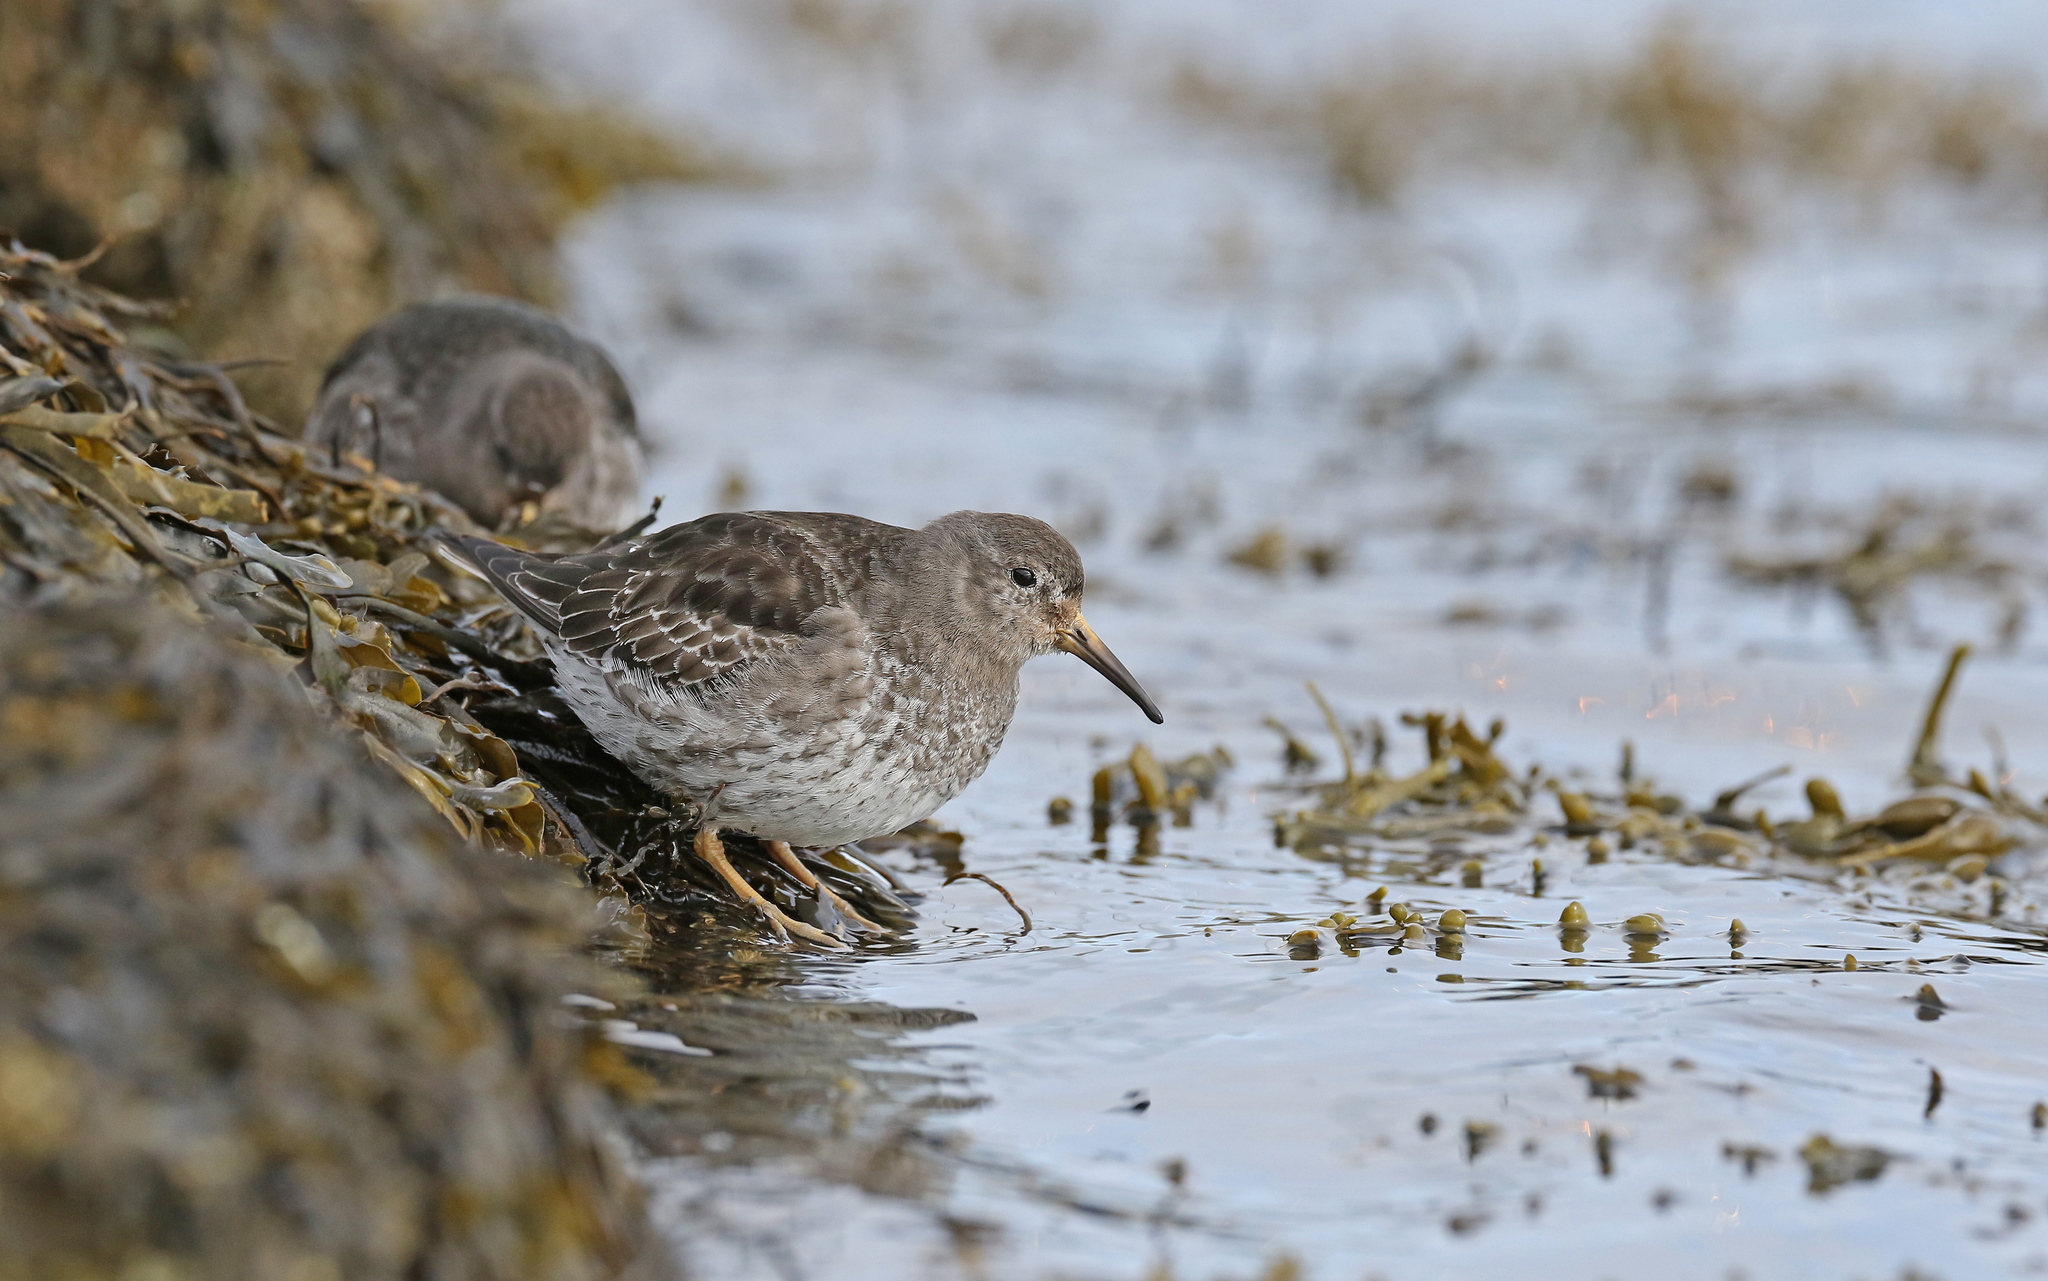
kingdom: Animalia
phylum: Chordata
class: Aves
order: Charadriiformes
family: Scolopacidae
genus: Calidris
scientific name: Calidris maritima
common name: Purple sandpiper
